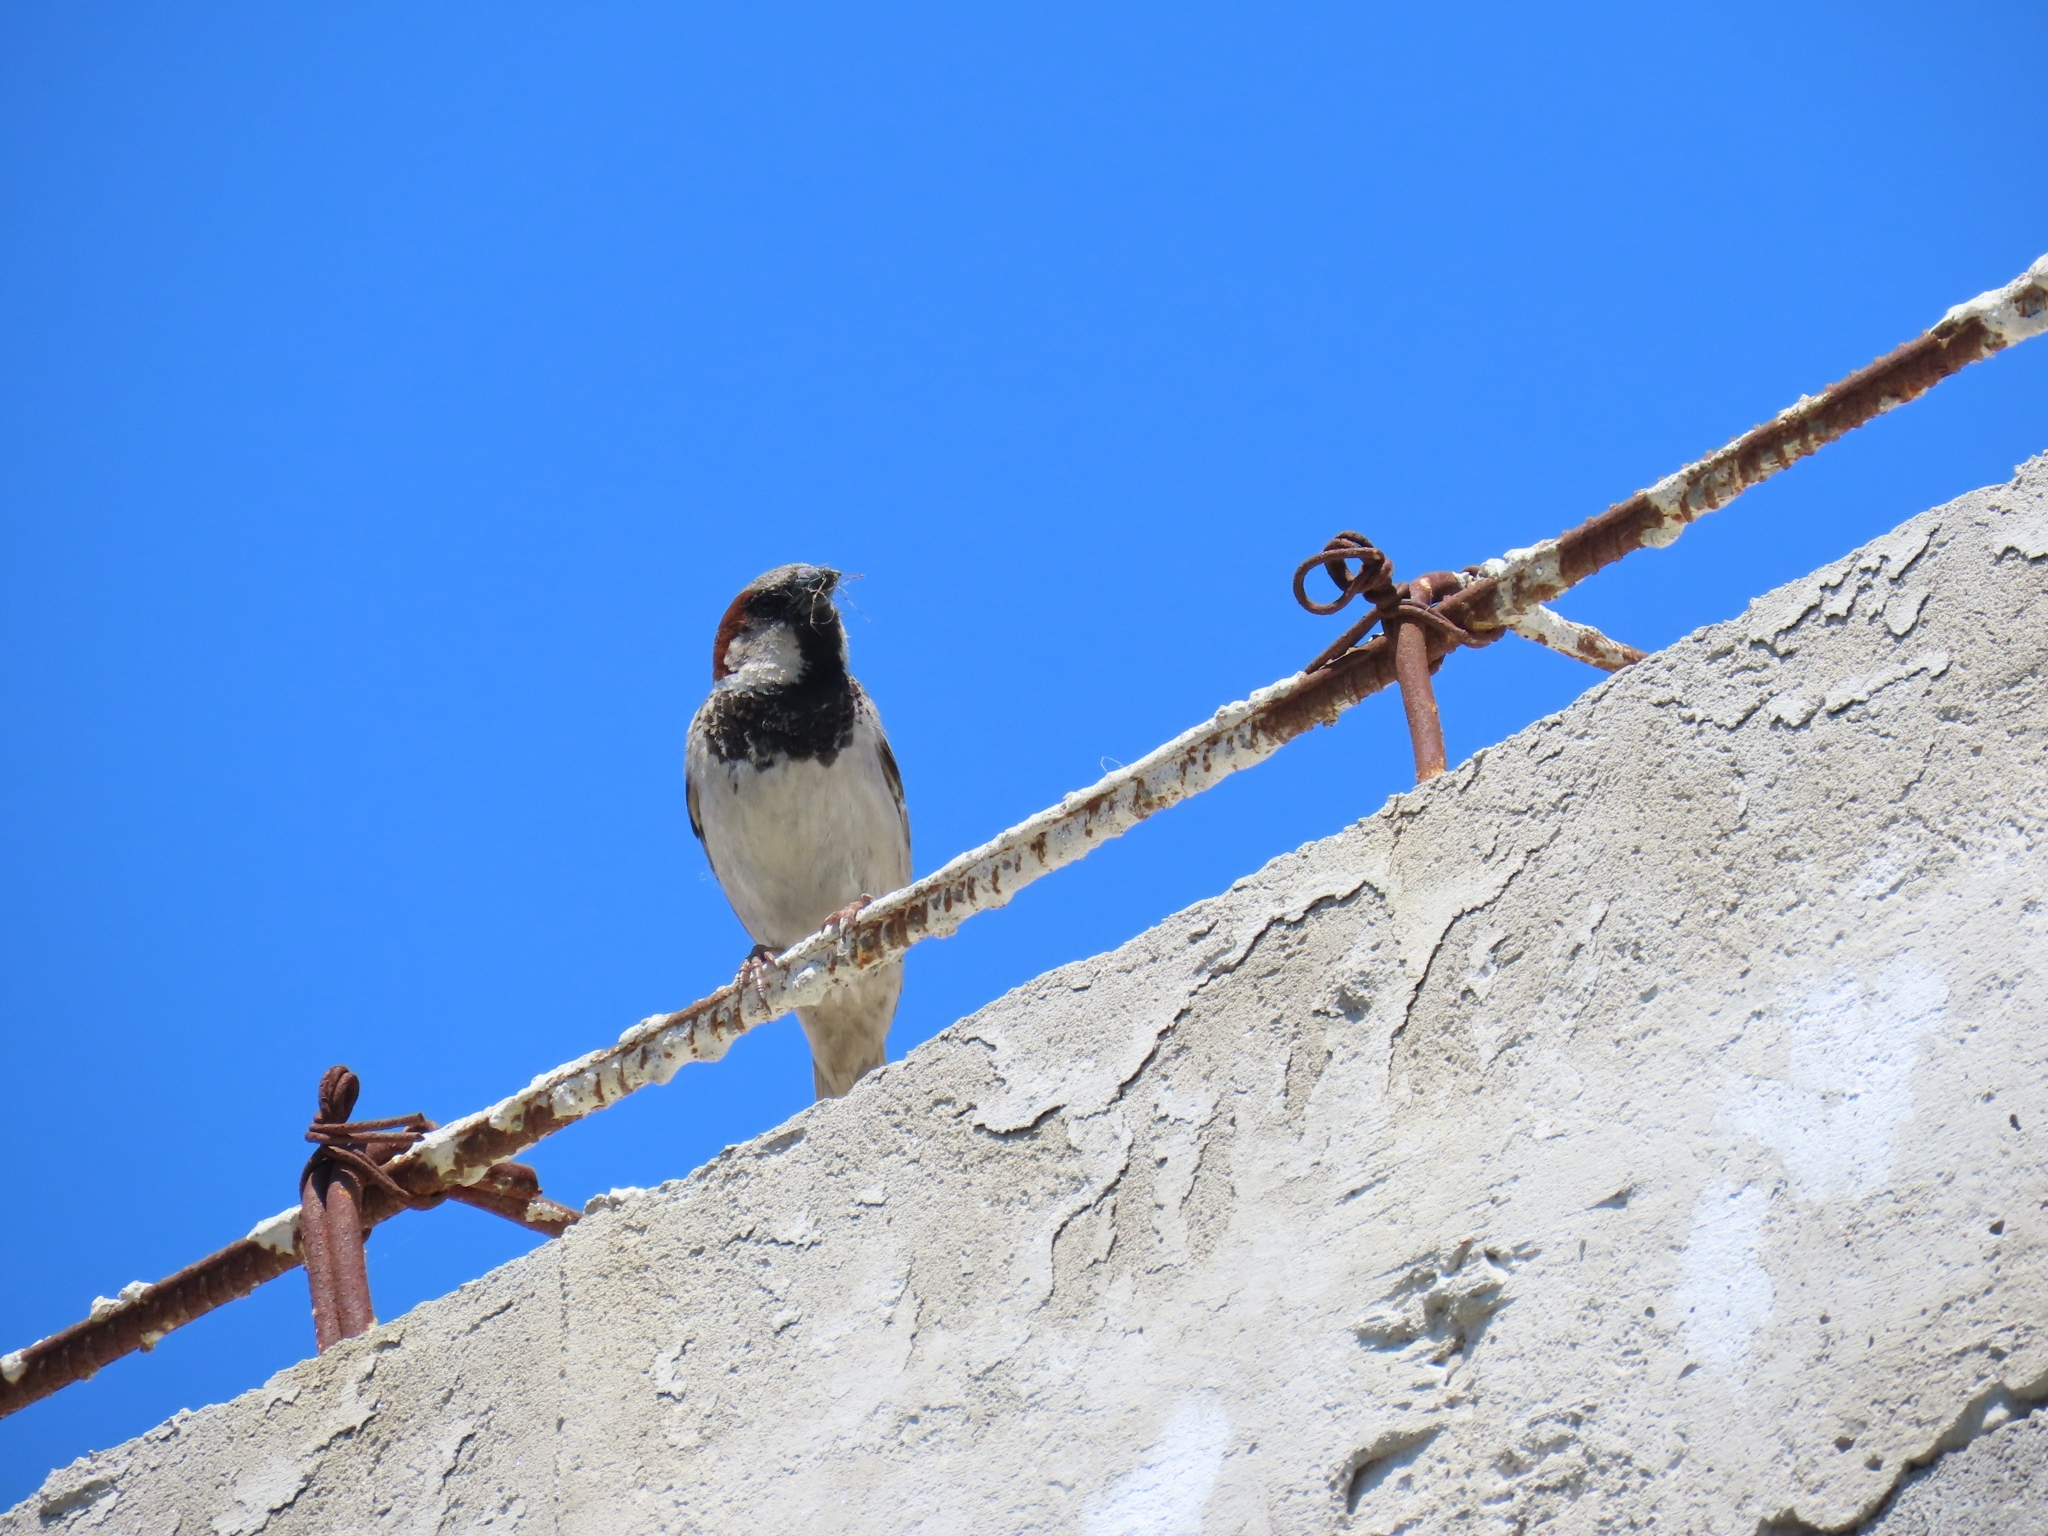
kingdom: Animalia
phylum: Chordata
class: Aves
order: Passeriformes
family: Passeridae
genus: Passer
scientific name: Passer domesticus
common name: House sparrow
